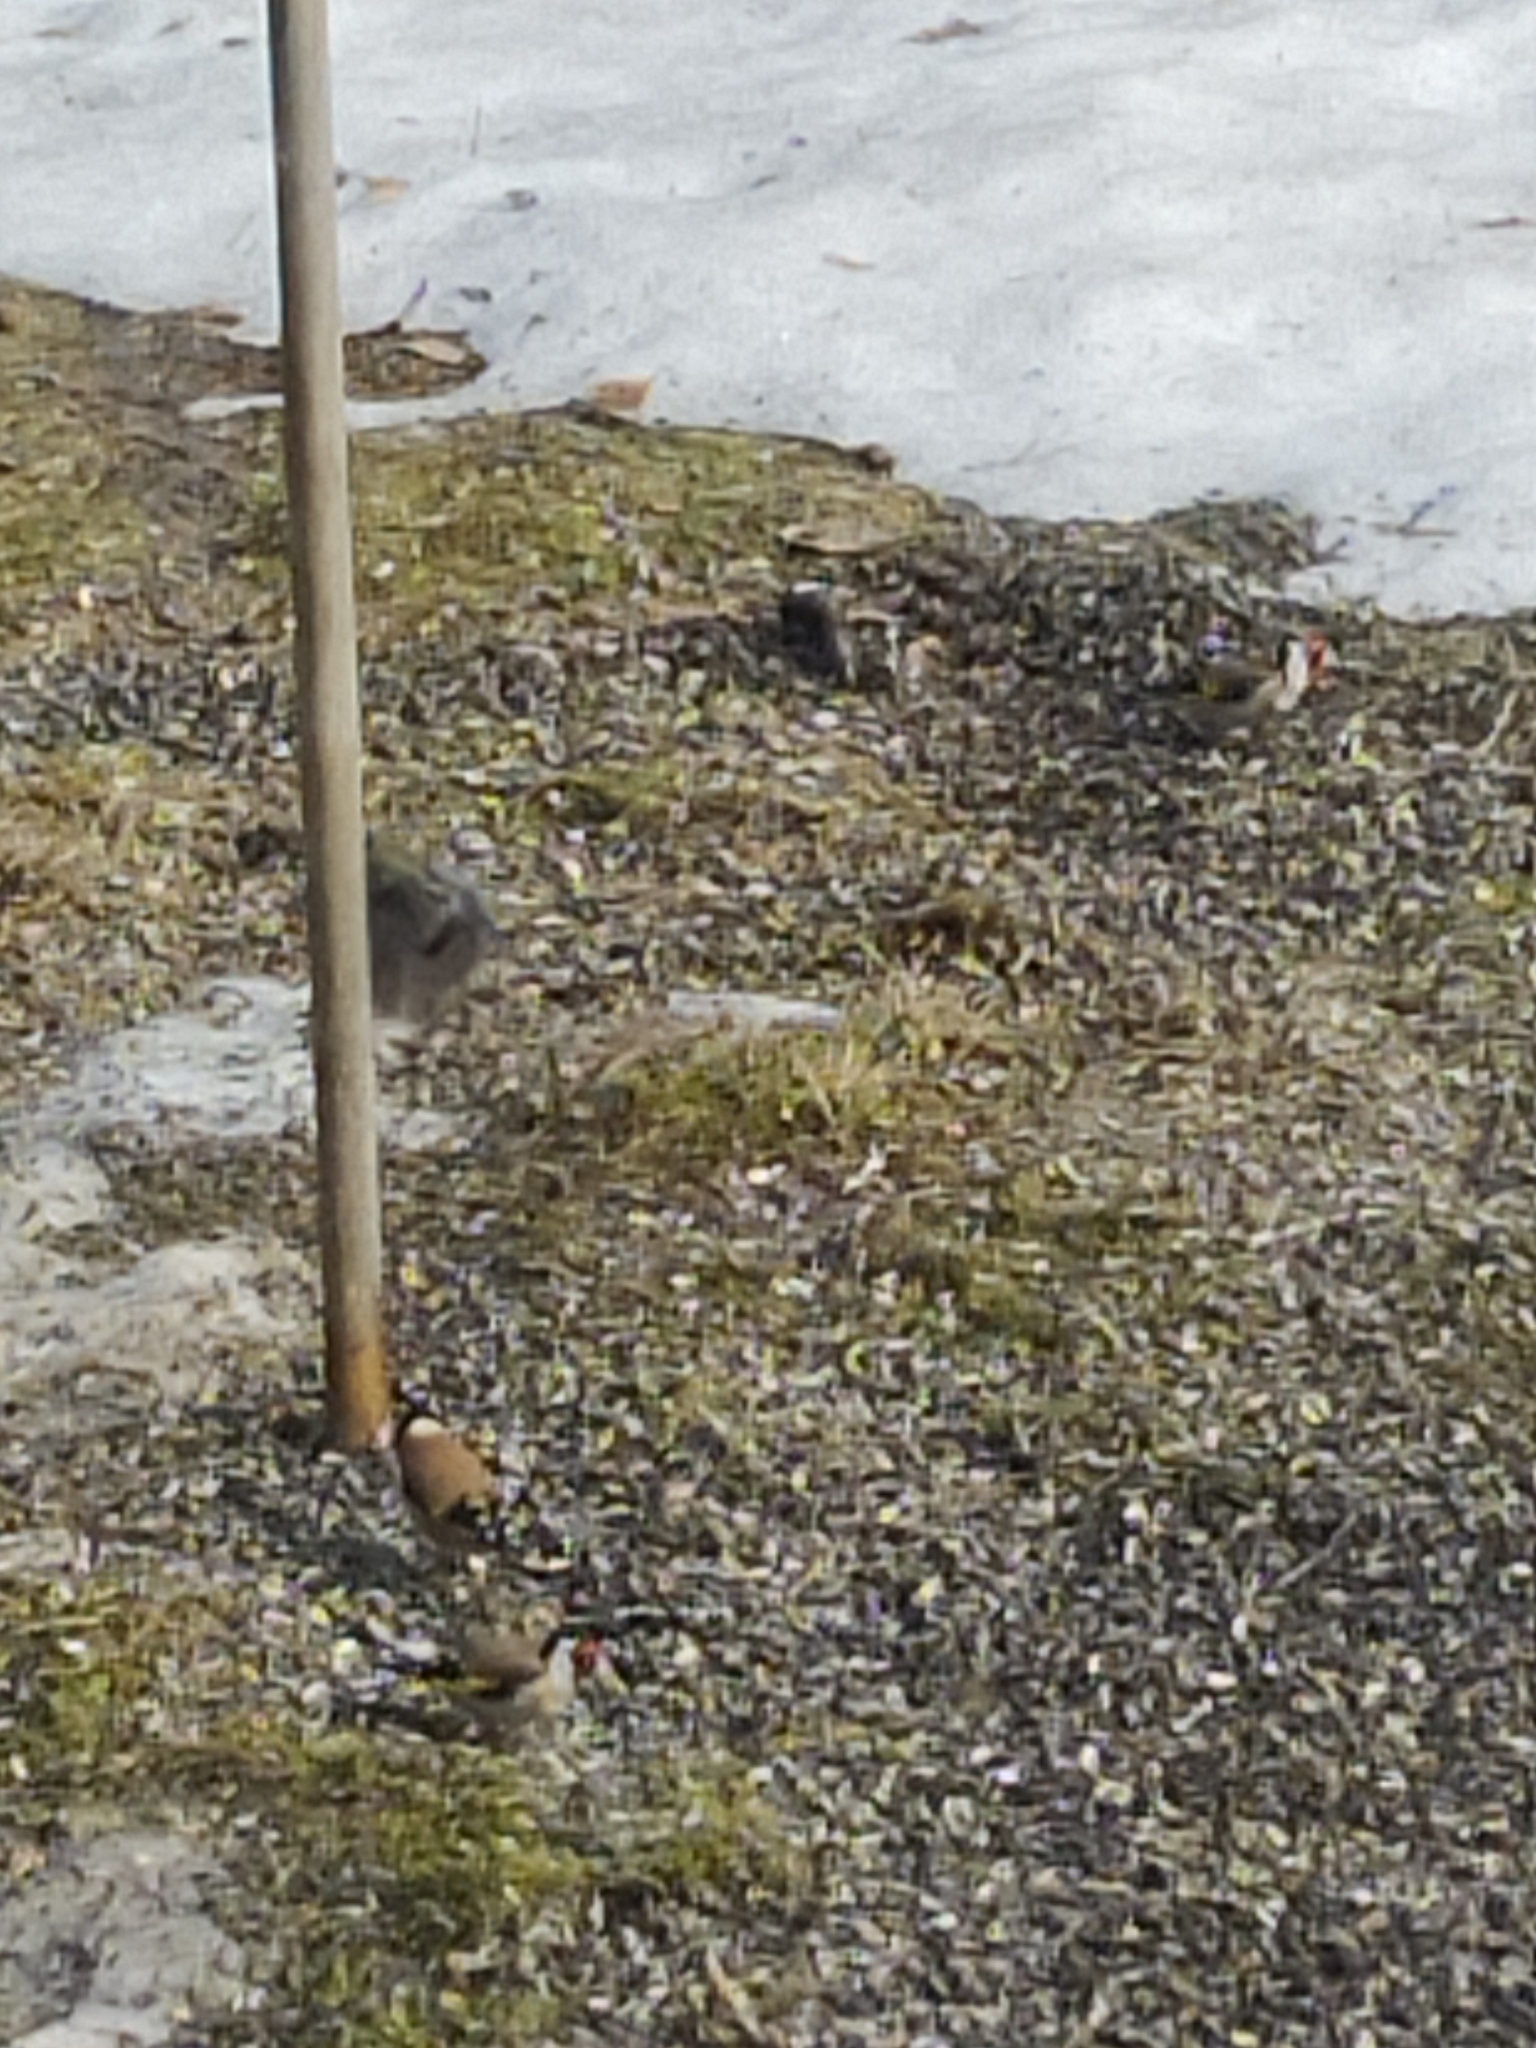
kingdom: Animalia
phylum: Chordata
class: Aves
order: Passeriformes
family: Fringillidae
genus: Carduelis
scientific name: Carduelis carduelis
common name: European goldfinch
